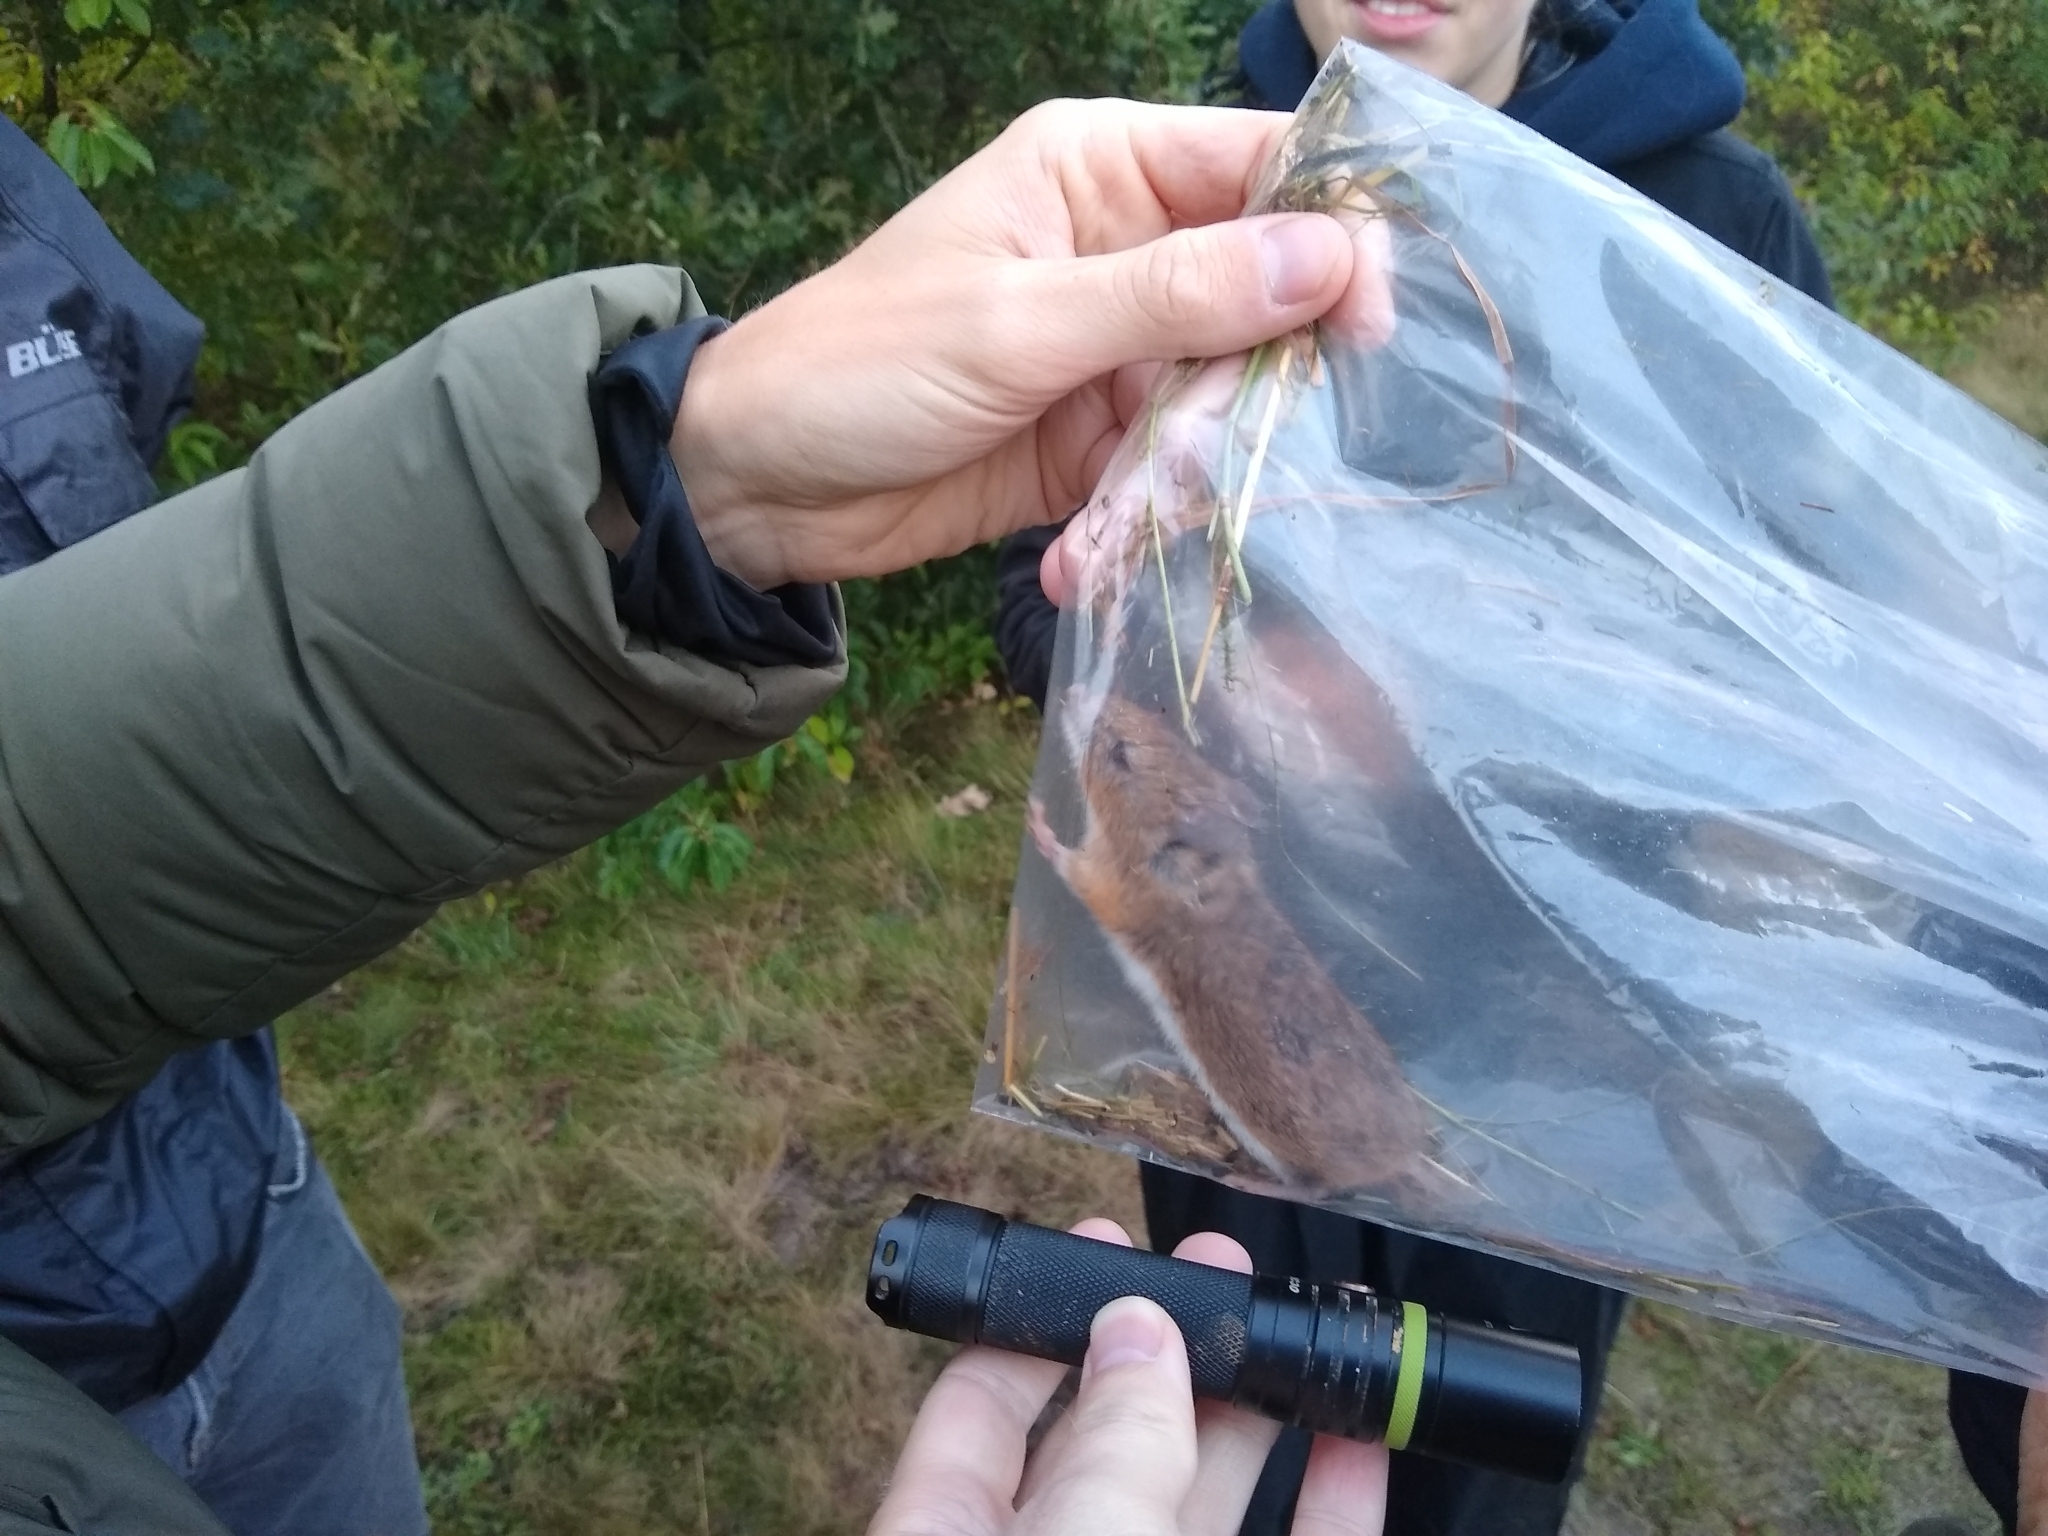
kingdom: Animalia
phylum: Chordata
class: Mammalia
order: Rodentia
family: Muridae
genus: Apodemus
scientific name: Apodemus flavicollis
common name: Yellow-necked field mouse
